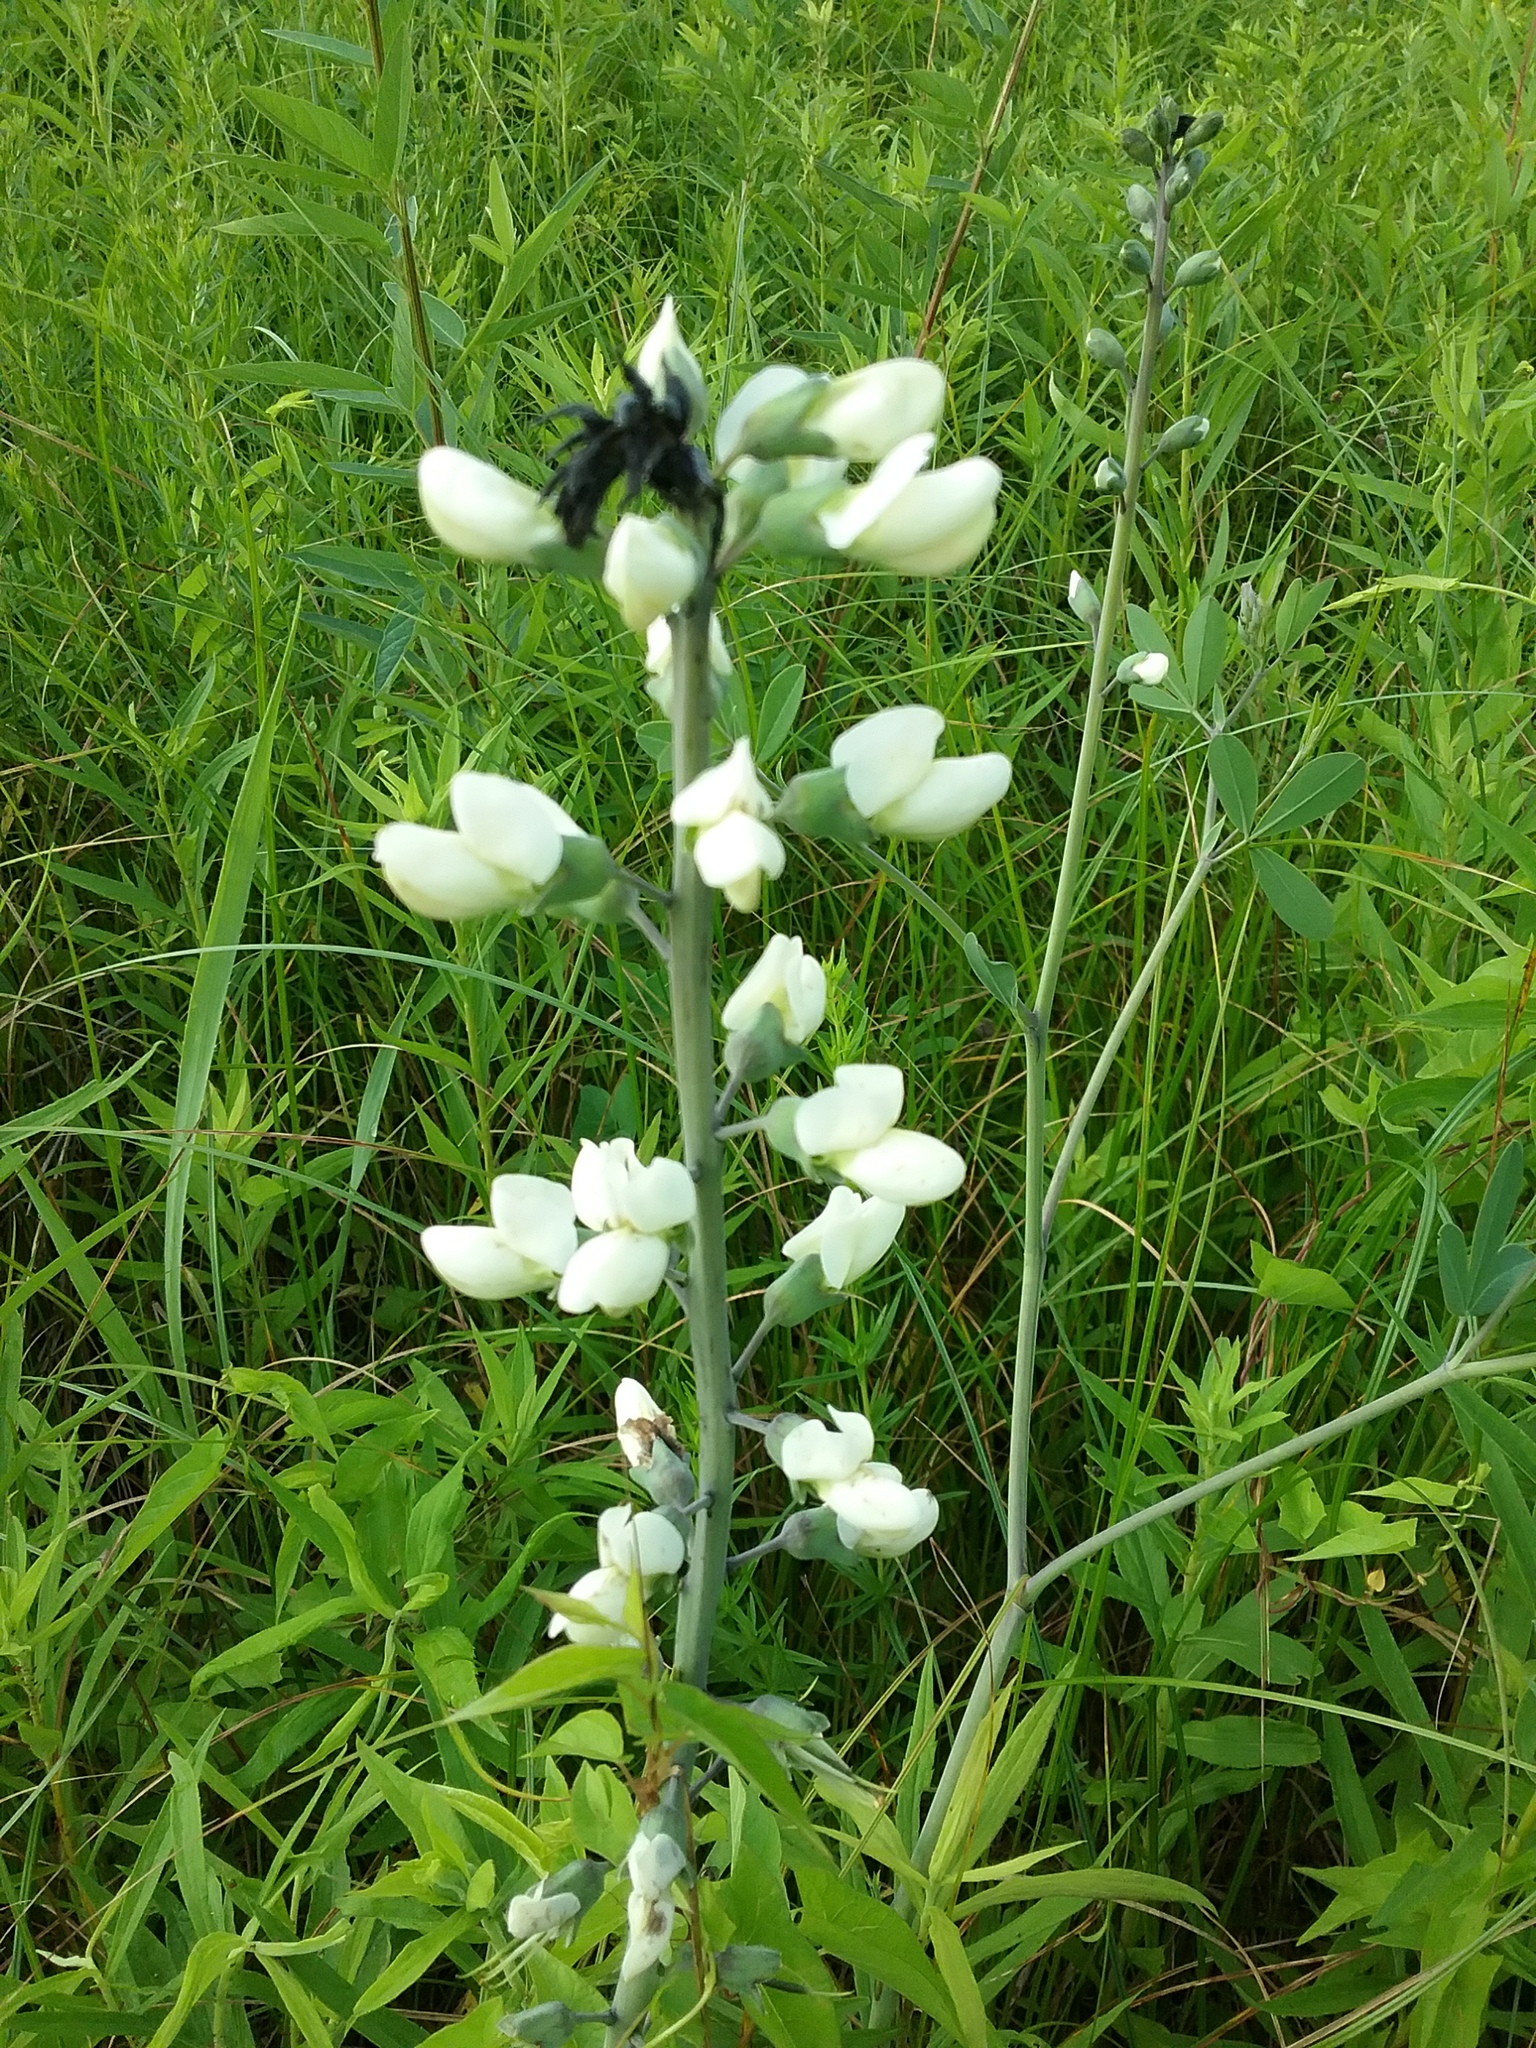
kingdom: Plantae
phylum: Tracheophyta
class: Magnoliopsida
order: Fabales
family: Fabaceae
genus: Baptisia
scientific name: Baptisia alba
